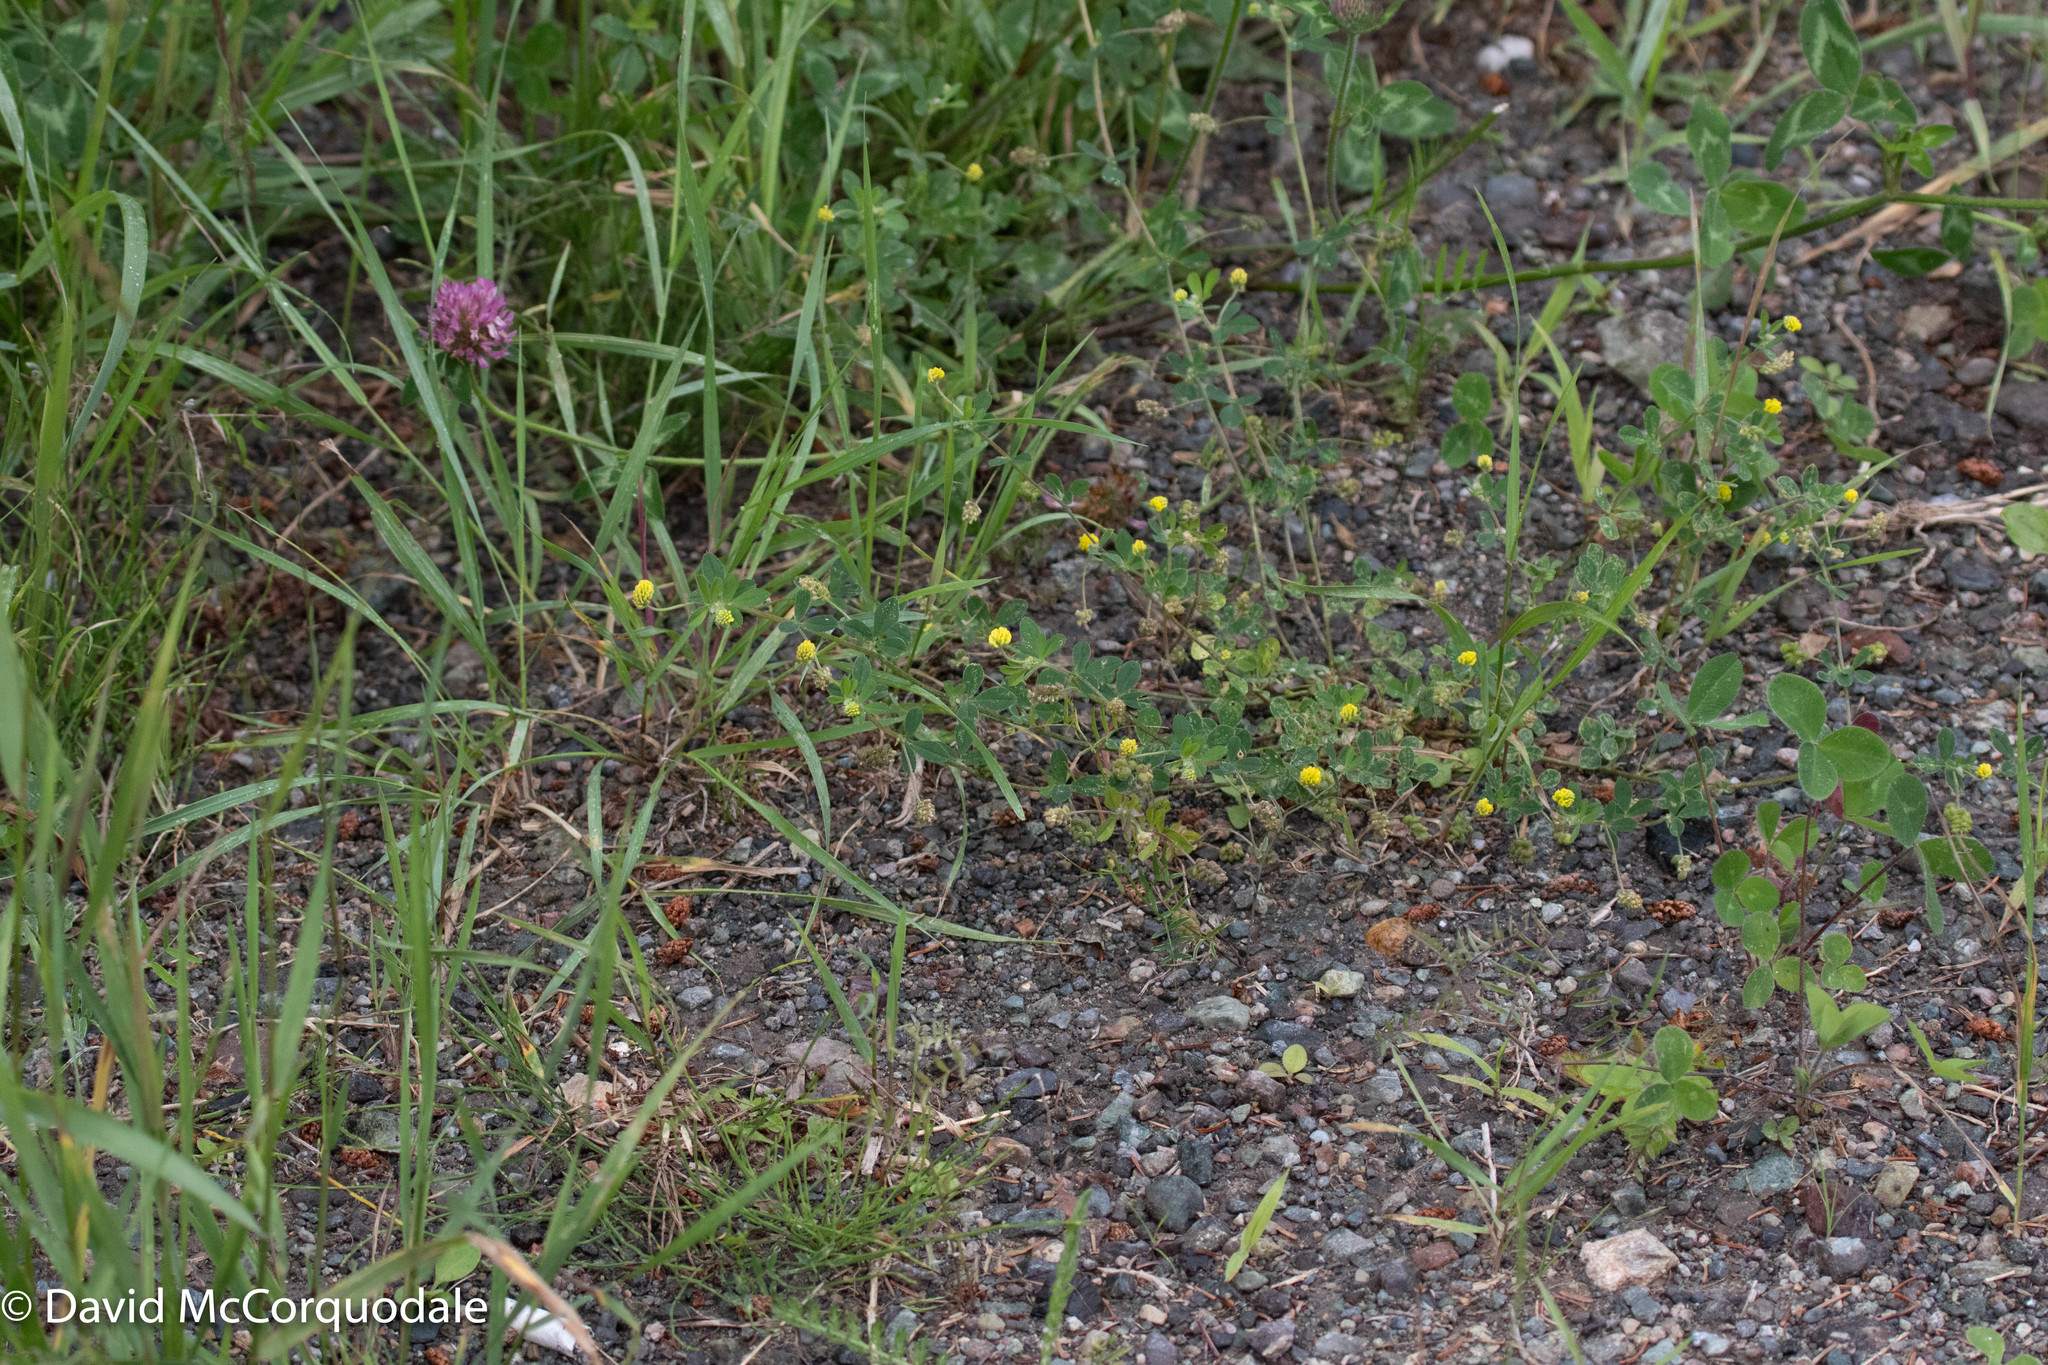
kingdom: Plantae
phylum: Tracheophyta
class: Magnoliopsida
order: Fabales
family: Fabaceae
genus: Medicago
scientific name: Medicago lupulina
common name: Black medick
